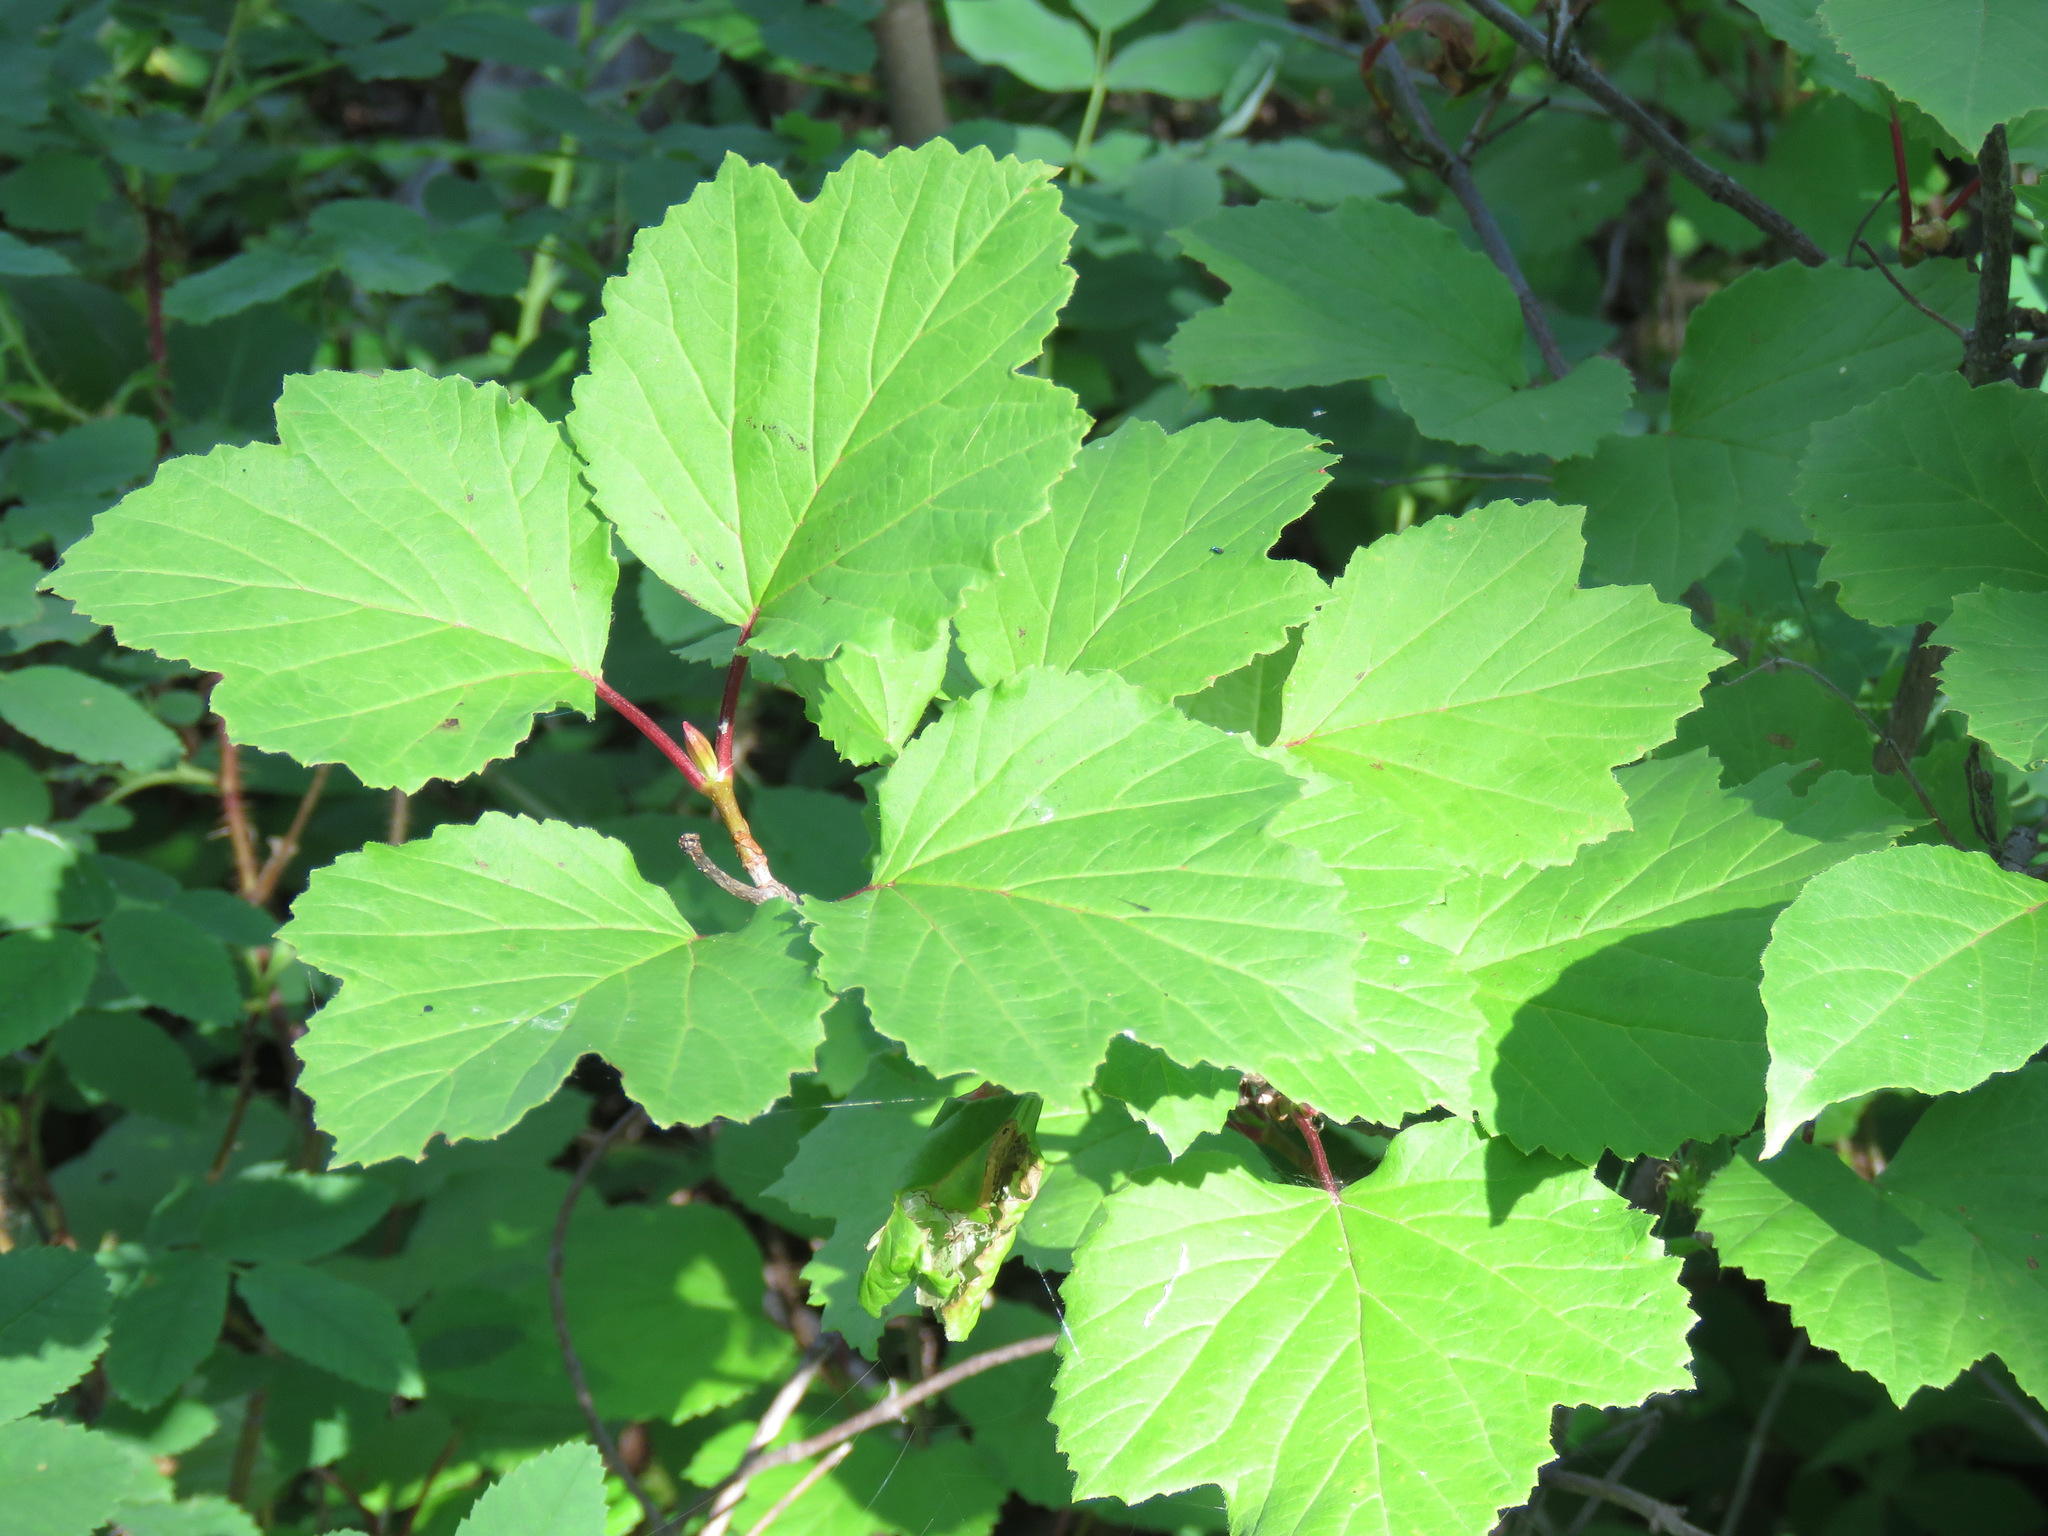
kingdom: Plantae
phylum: Tracheophyta
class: Magnoliopsida
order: Dipsacales
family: Viburnaceae
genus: Viburnum
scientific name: Viburnum edule
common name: Mooseberry
